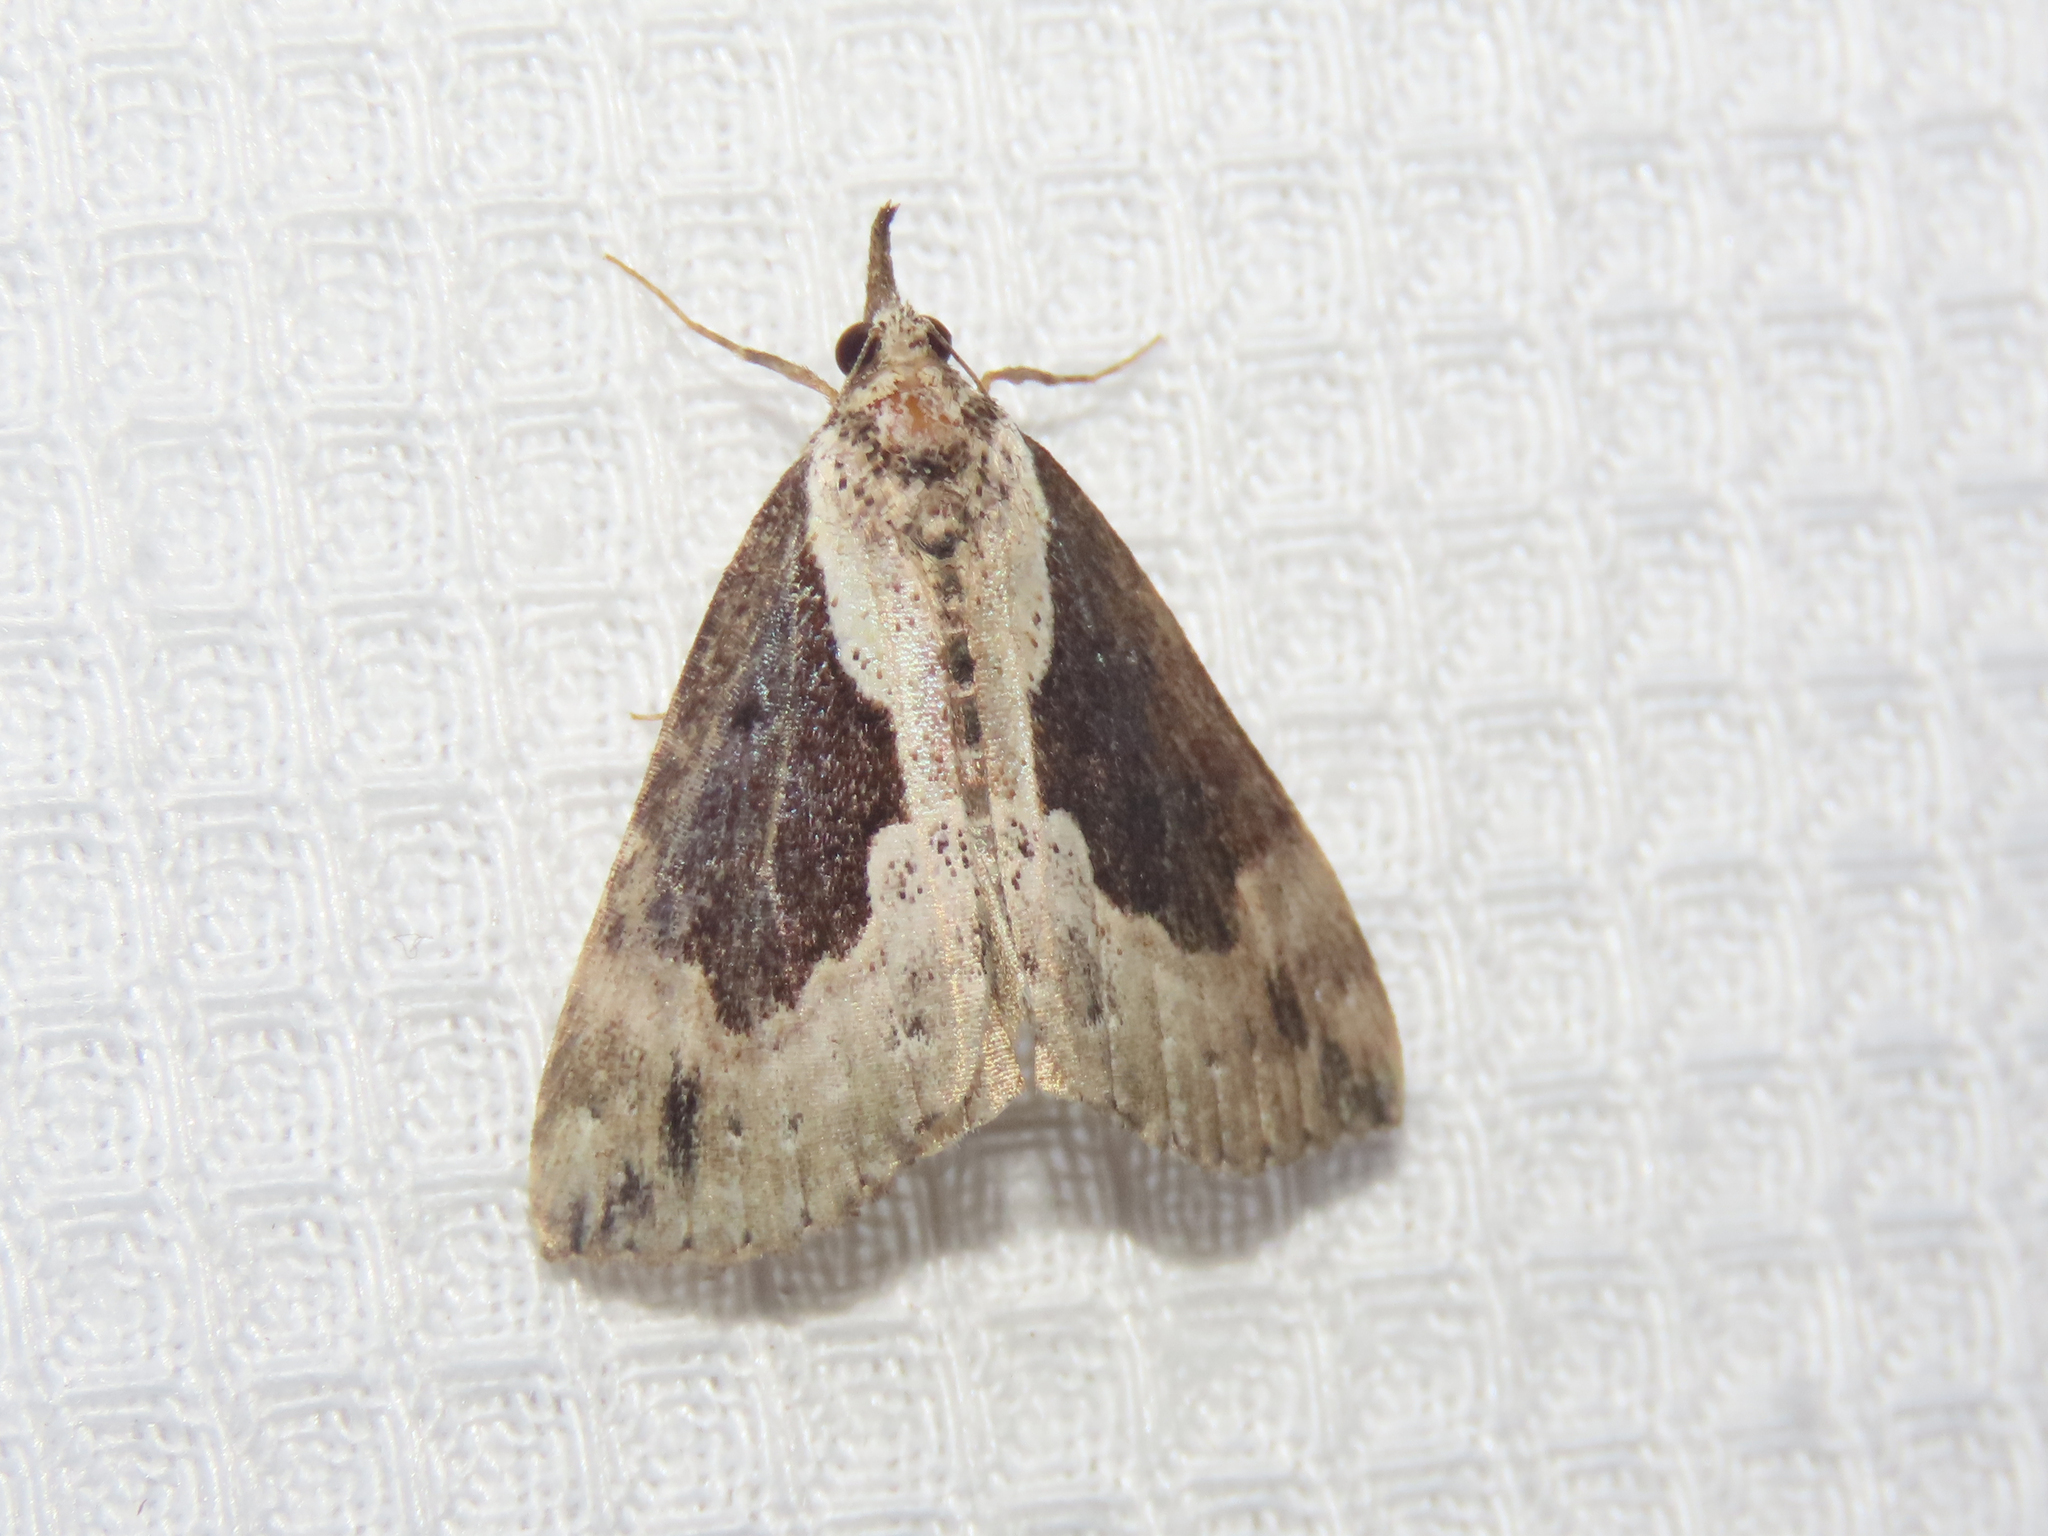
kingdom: Animalia
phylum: Arthropoda
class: Insecta
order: Lepidoptera
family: Erebidae
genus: Hypena
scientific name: Hypena baltimoralis
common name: Baltimore snout
